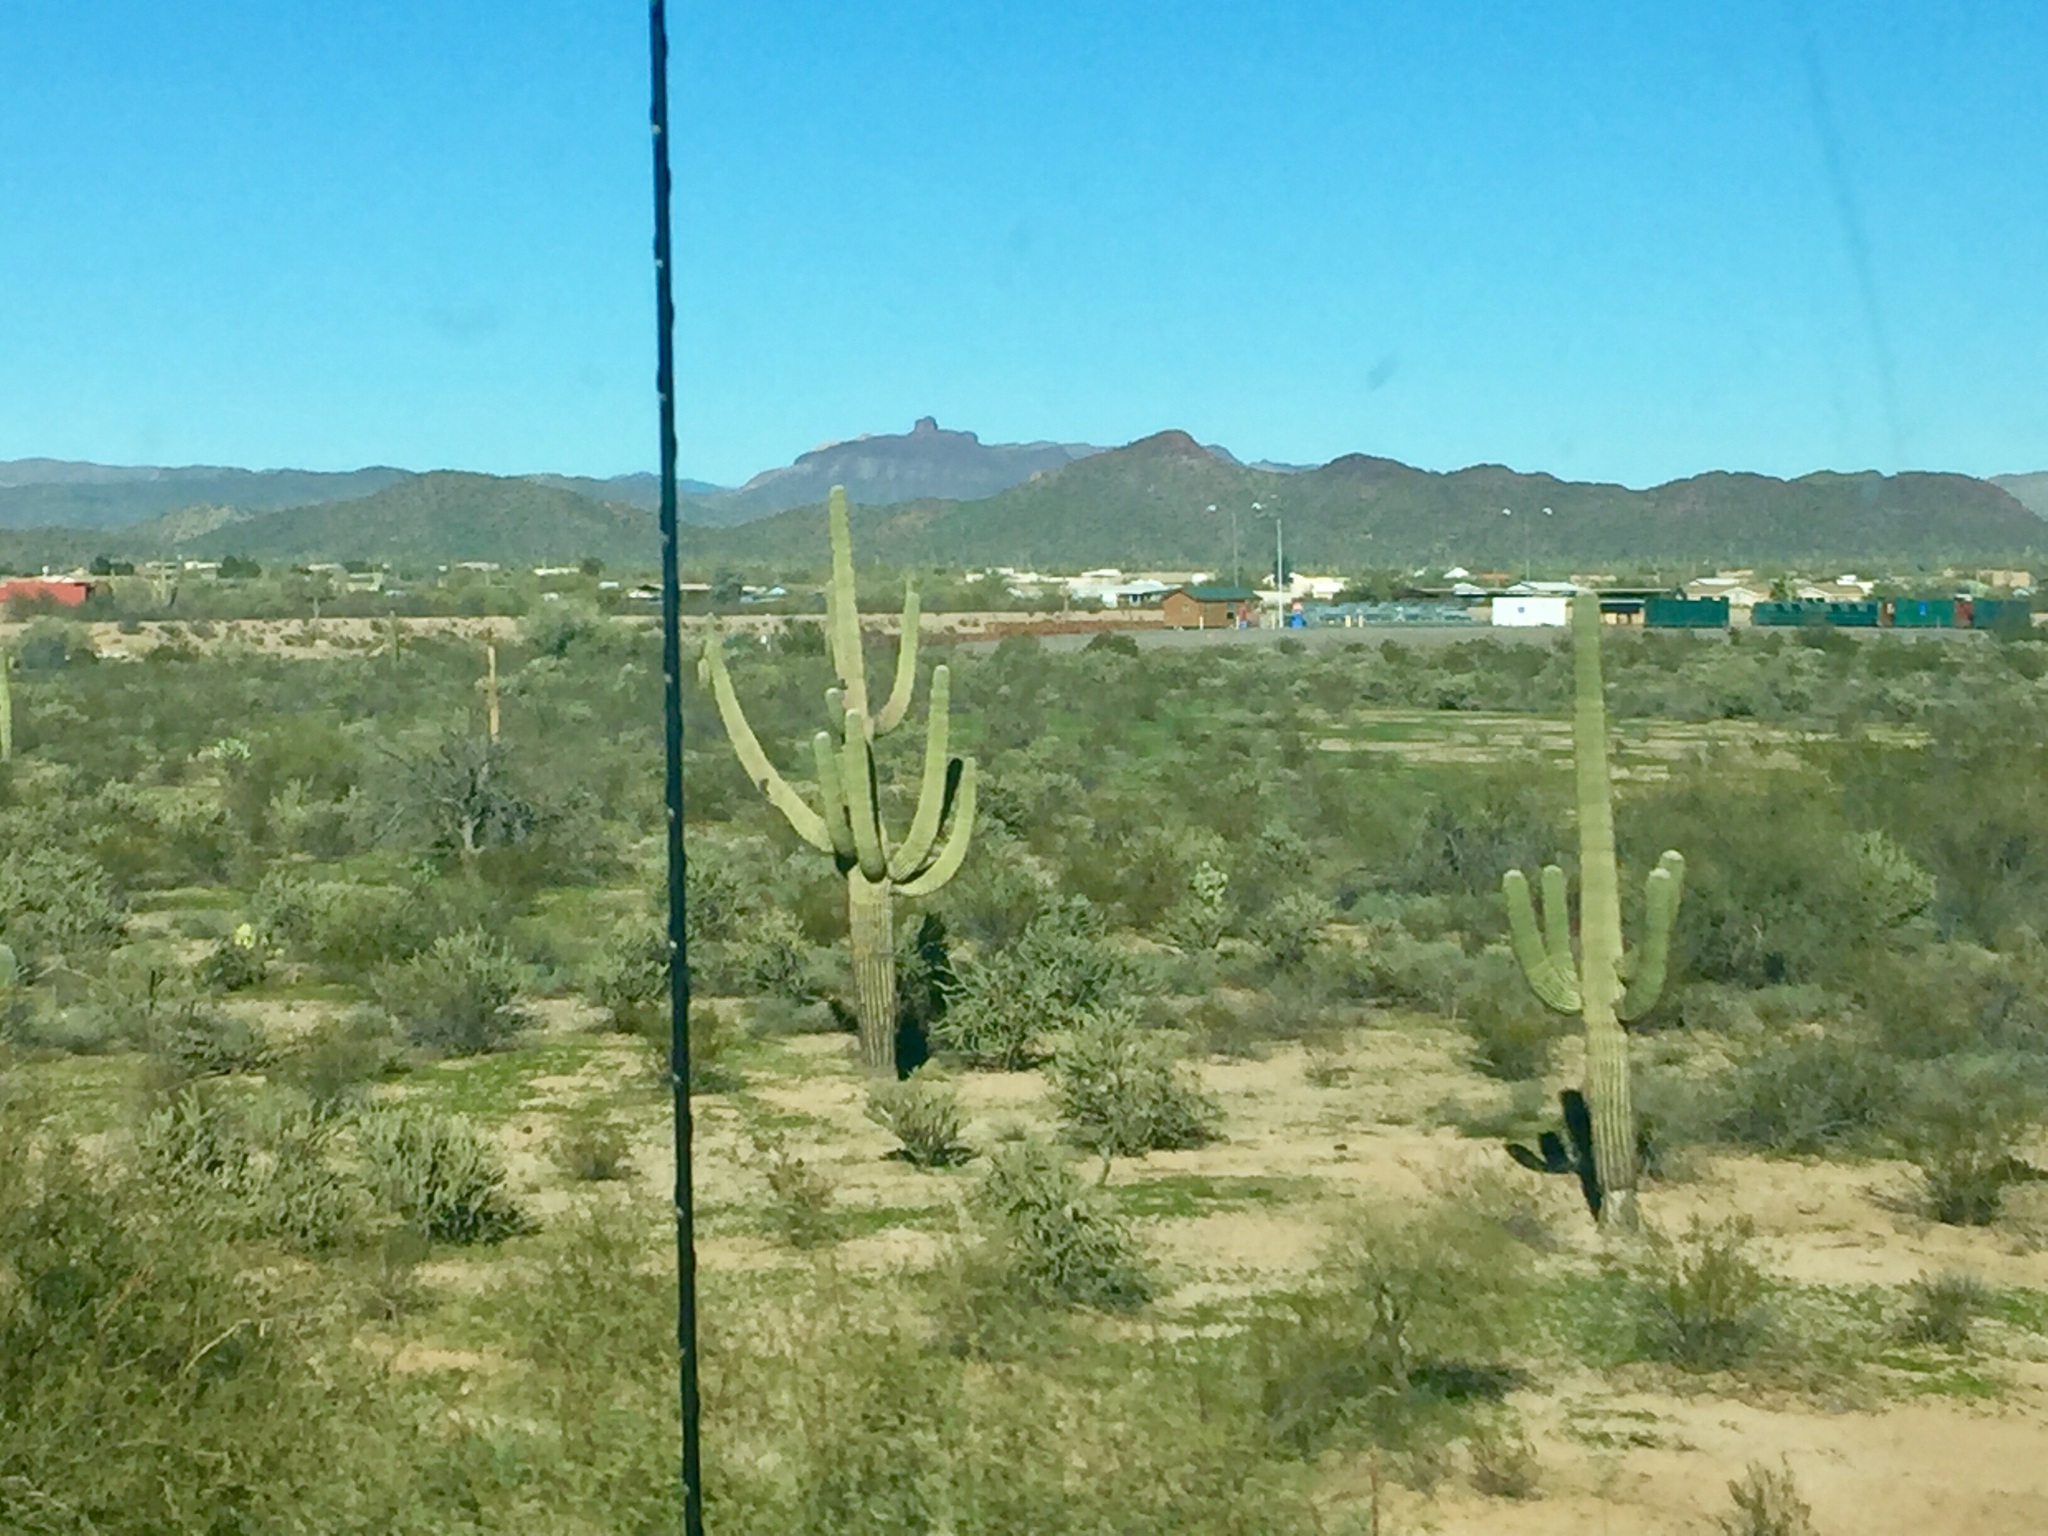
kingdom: Plantae
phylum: Tracheophyta
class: Magnoliopsida
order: Caryophyllales
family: Cactaceae
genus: Carnegiea
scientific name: Carnegiea gigantea
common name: Saguaro
